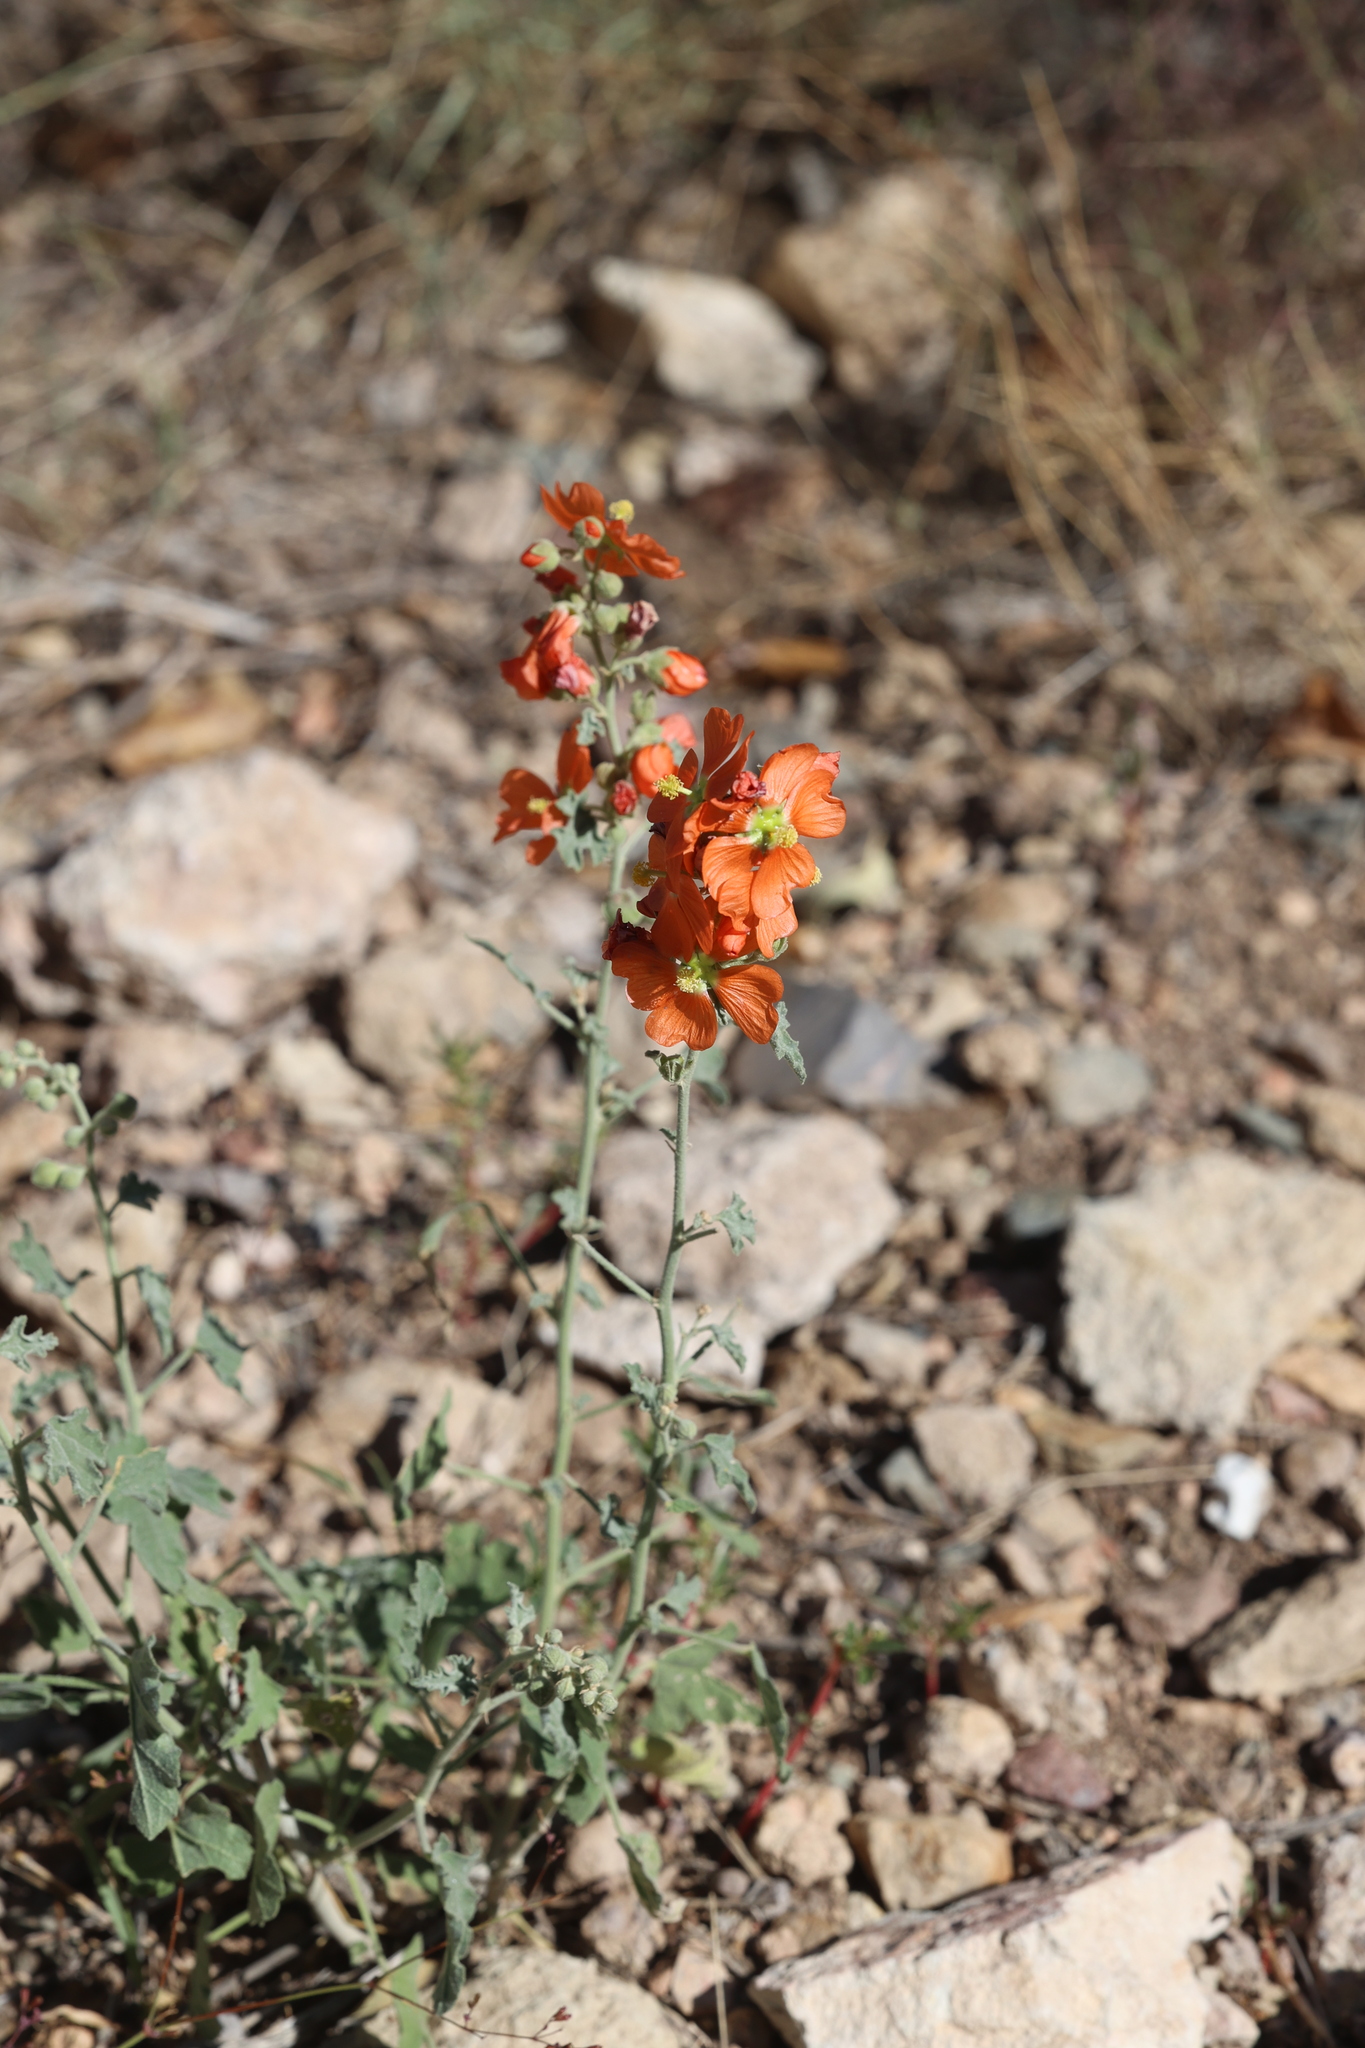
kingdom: Plantae
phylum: Tracheophyta
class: Magnoliopsida
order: Malvales
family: Malvaceae
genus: Sphaeralcea
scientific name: Sphaeralcea incana
